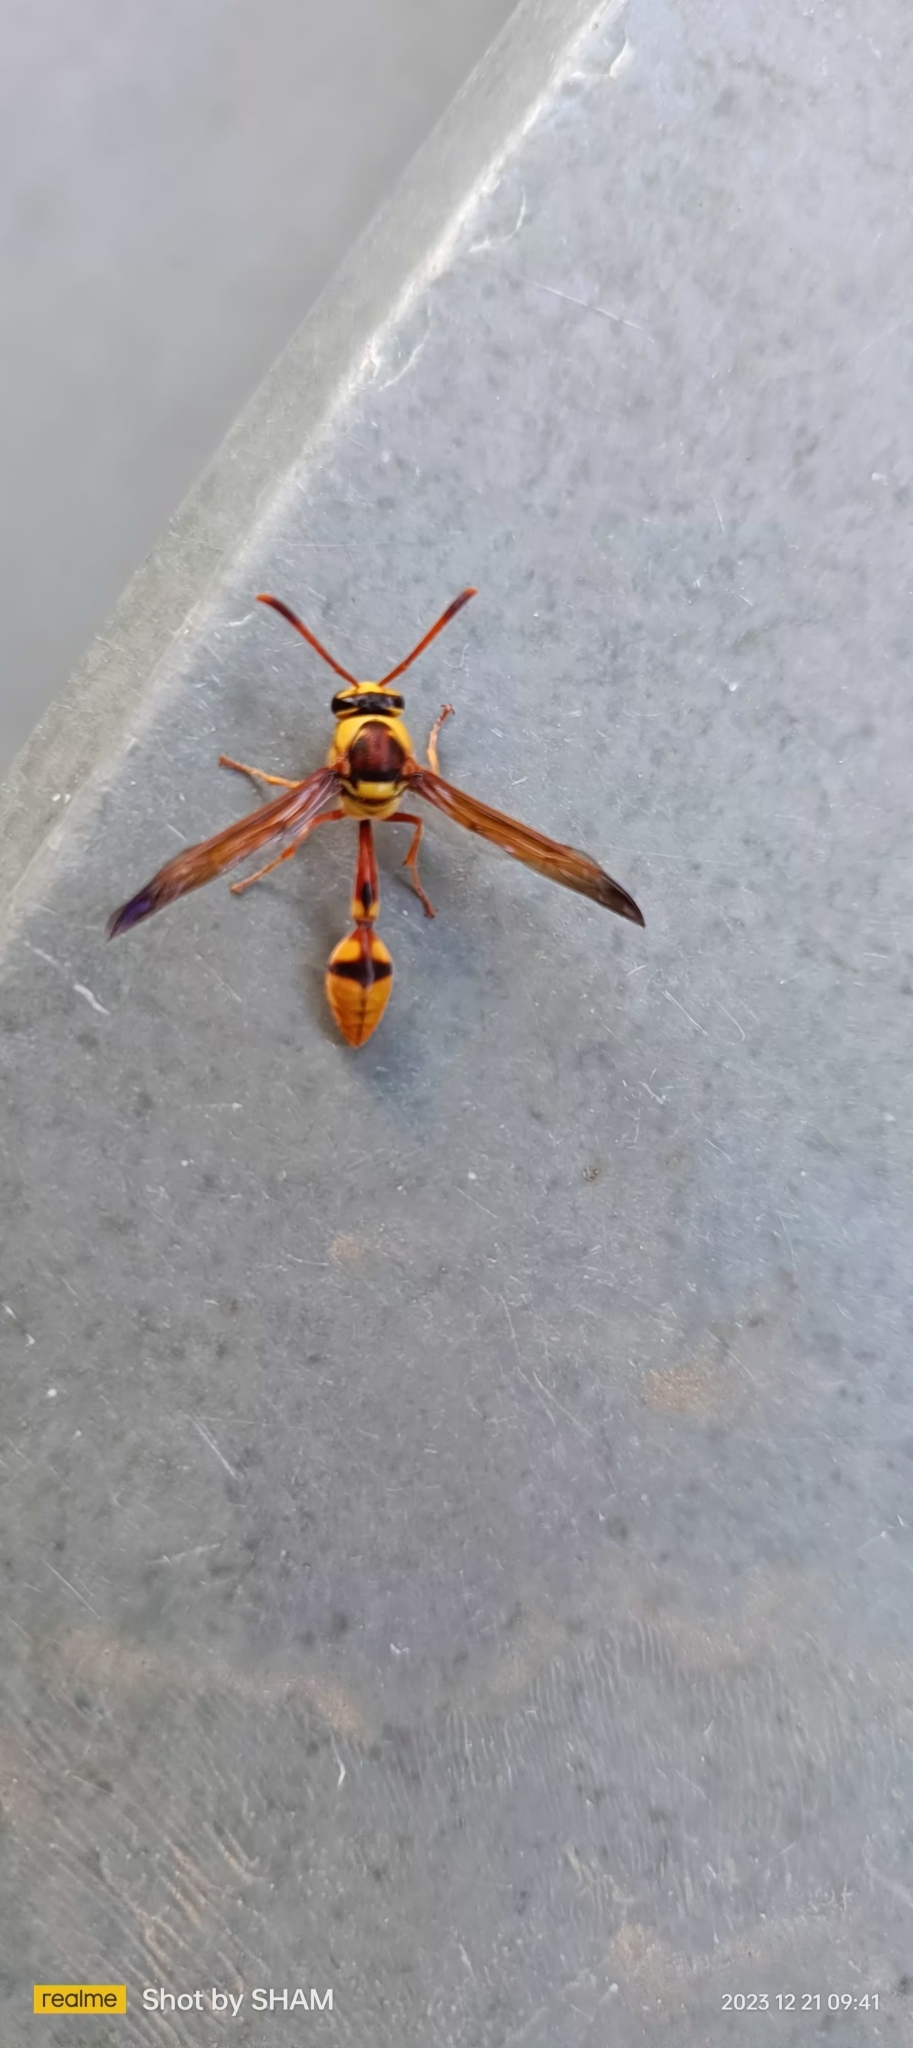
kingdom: Animalia
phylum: Arthropoda
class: Insecta
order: Hymenoptera
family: Eumenidae
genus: Delta
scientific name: Delta campaniforme
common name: Yellow and black potter wasp
